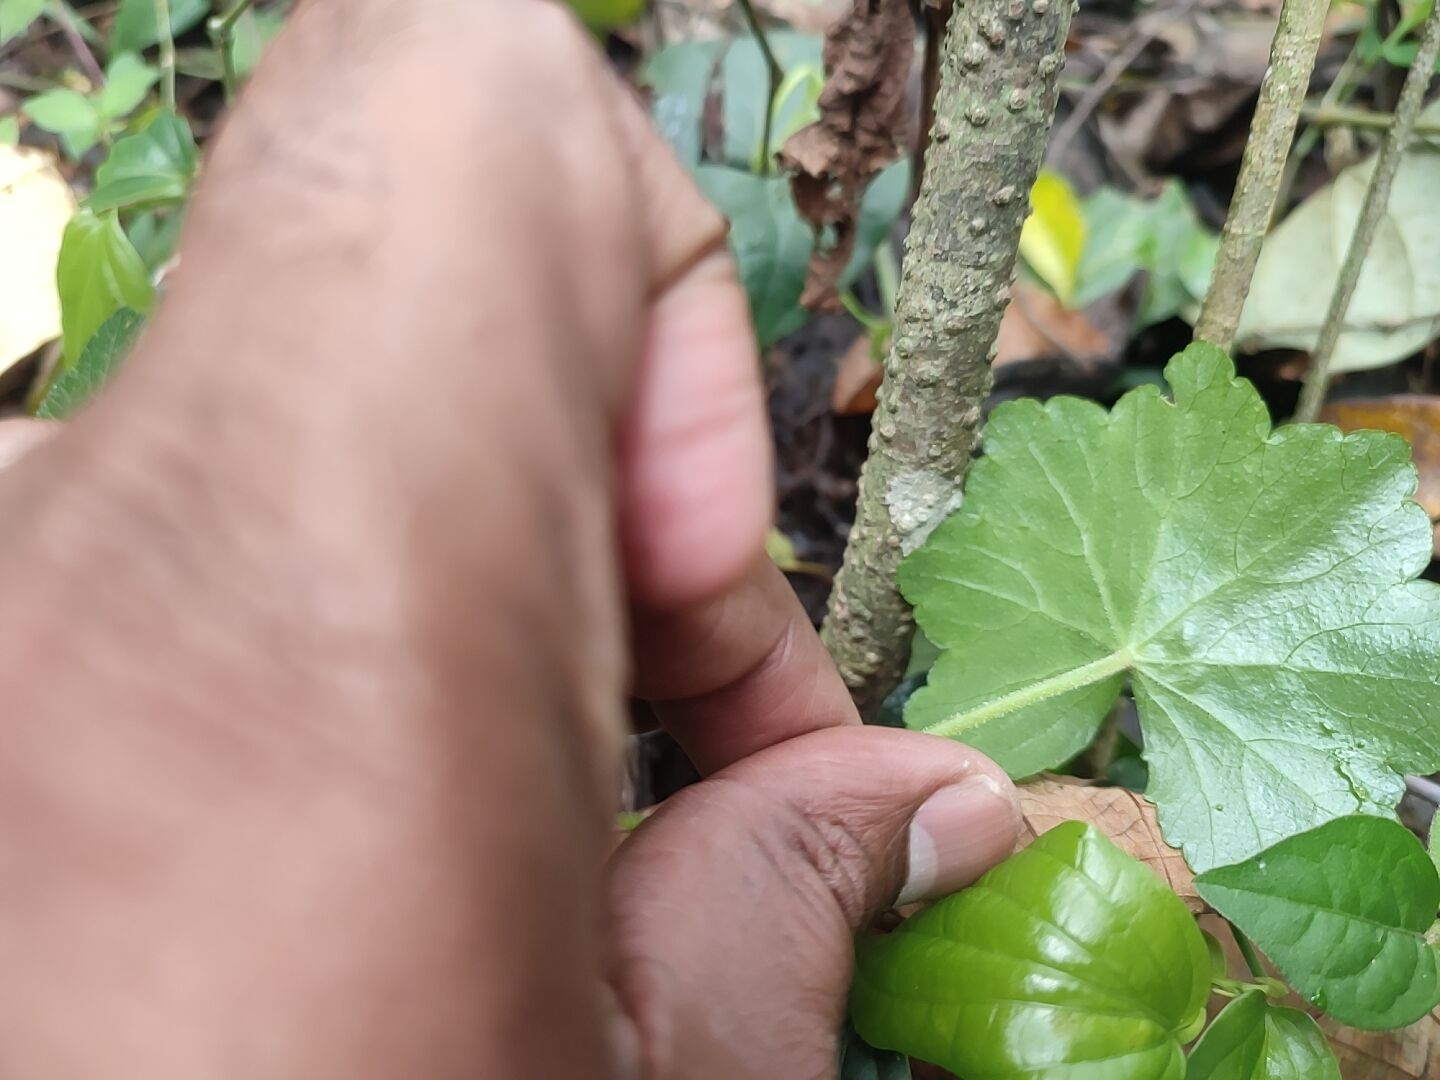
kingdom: Plantae
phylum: Tracheophyta
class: Magnoliopsida
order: Apiales
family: Araliaceae
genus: Hydrocotyle
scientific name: Hydrocotyle javanica
